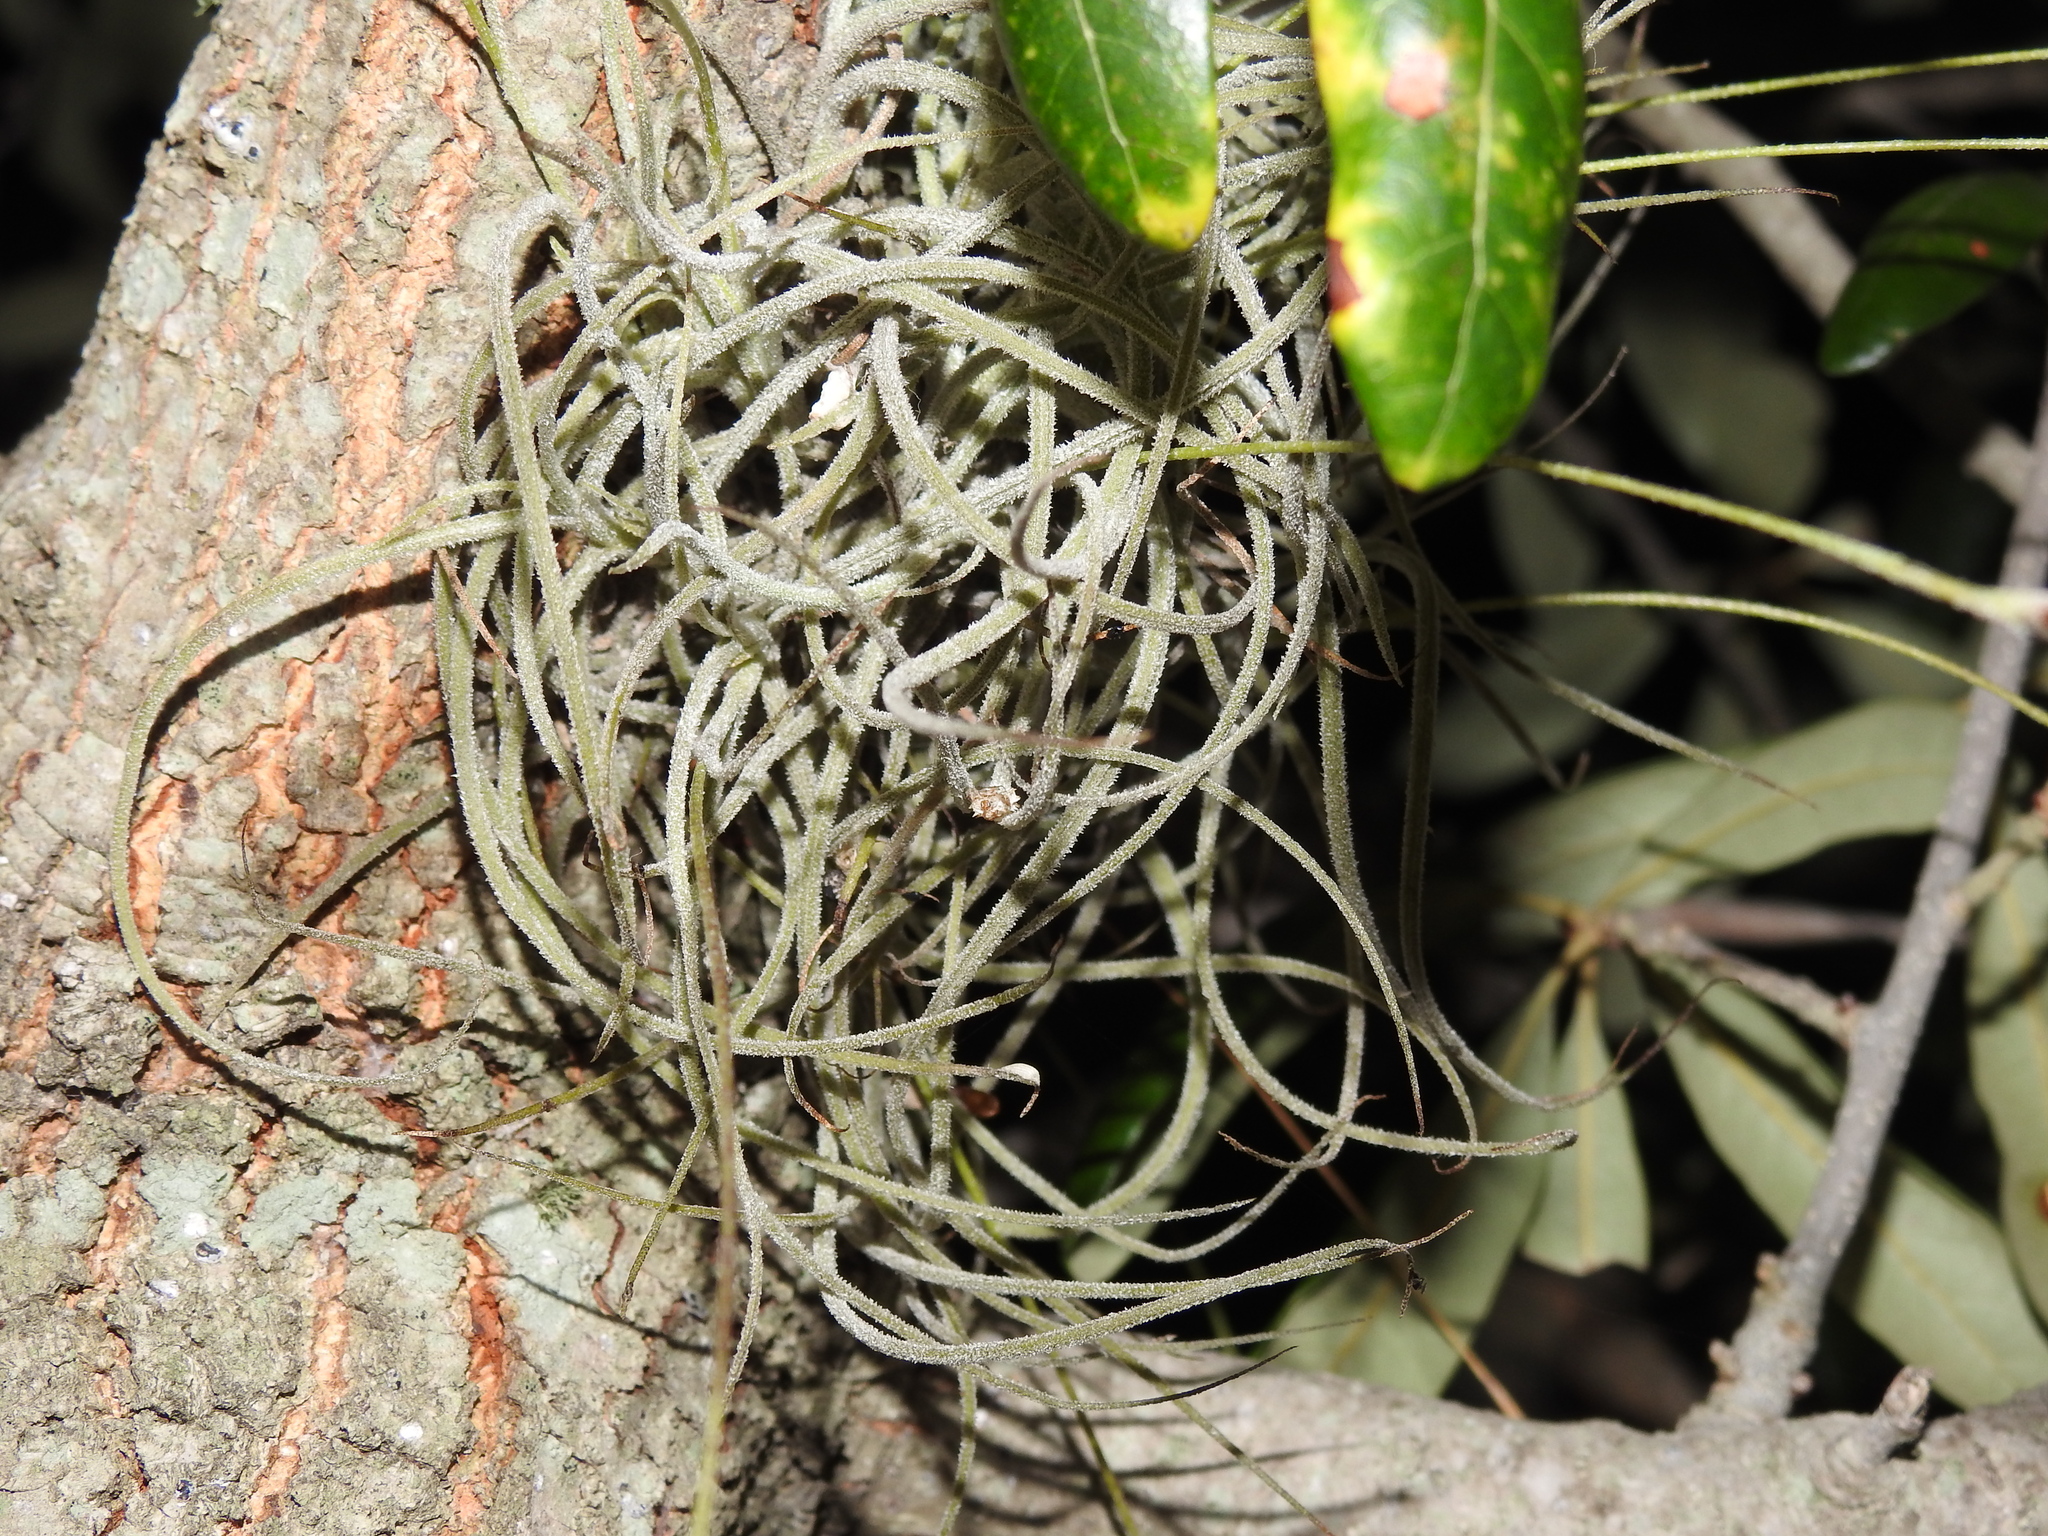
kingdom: Plantae
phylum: Tracheophyta
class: Liliopsida
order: Poales
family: Bromeliaceae
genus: Tillandsia
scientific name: Tillandsia recurvata
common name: Small ballmoss
